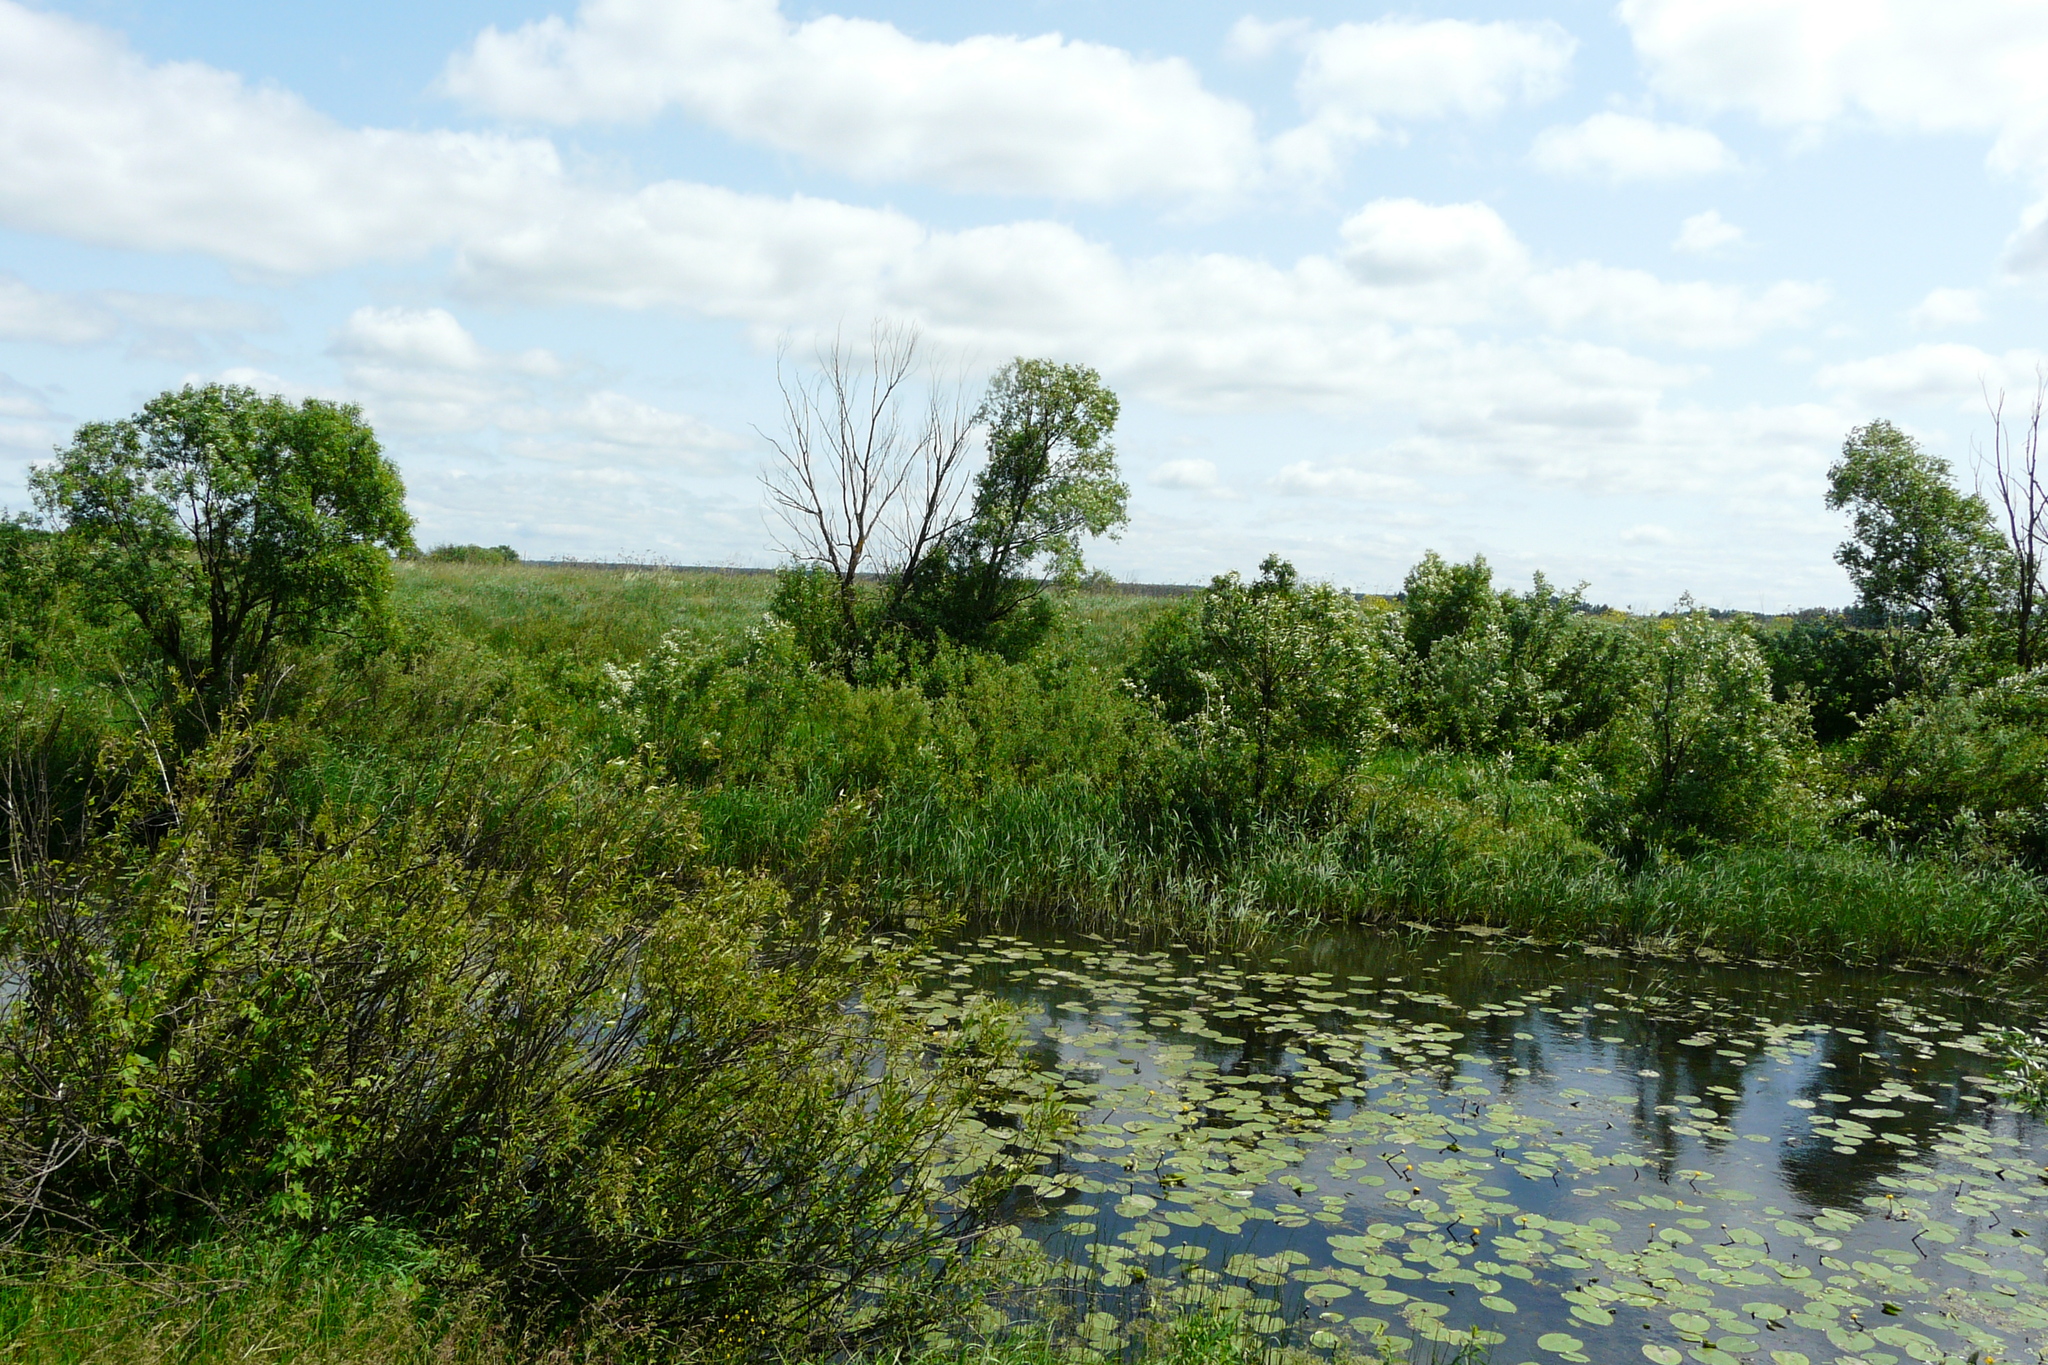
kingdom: Plantae
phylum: Tracheophyta
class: Magnoliopsida
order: Nymphaeales
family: Nymphaeaceae
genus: Nuphar
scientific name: Nuphar lutea
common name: Yellow water-lily
